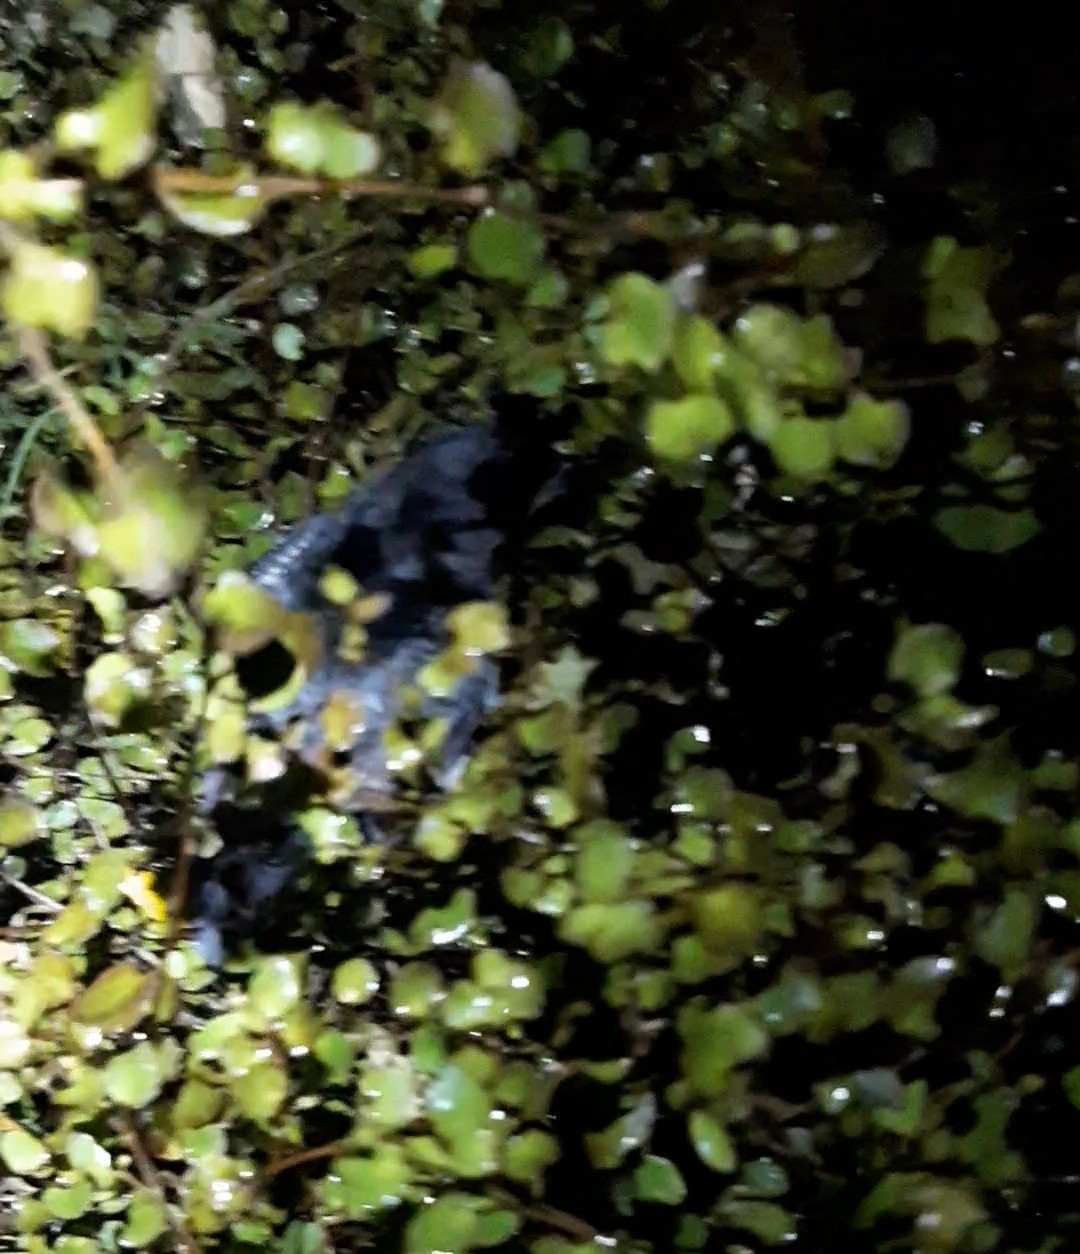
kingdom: Animalia
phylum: Chordata
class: Aves
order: Procellariiformes
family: Pelecanoididae
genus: Pelecanoides
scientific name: Pelecanoides urinatrix
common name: Common diving-petrel
